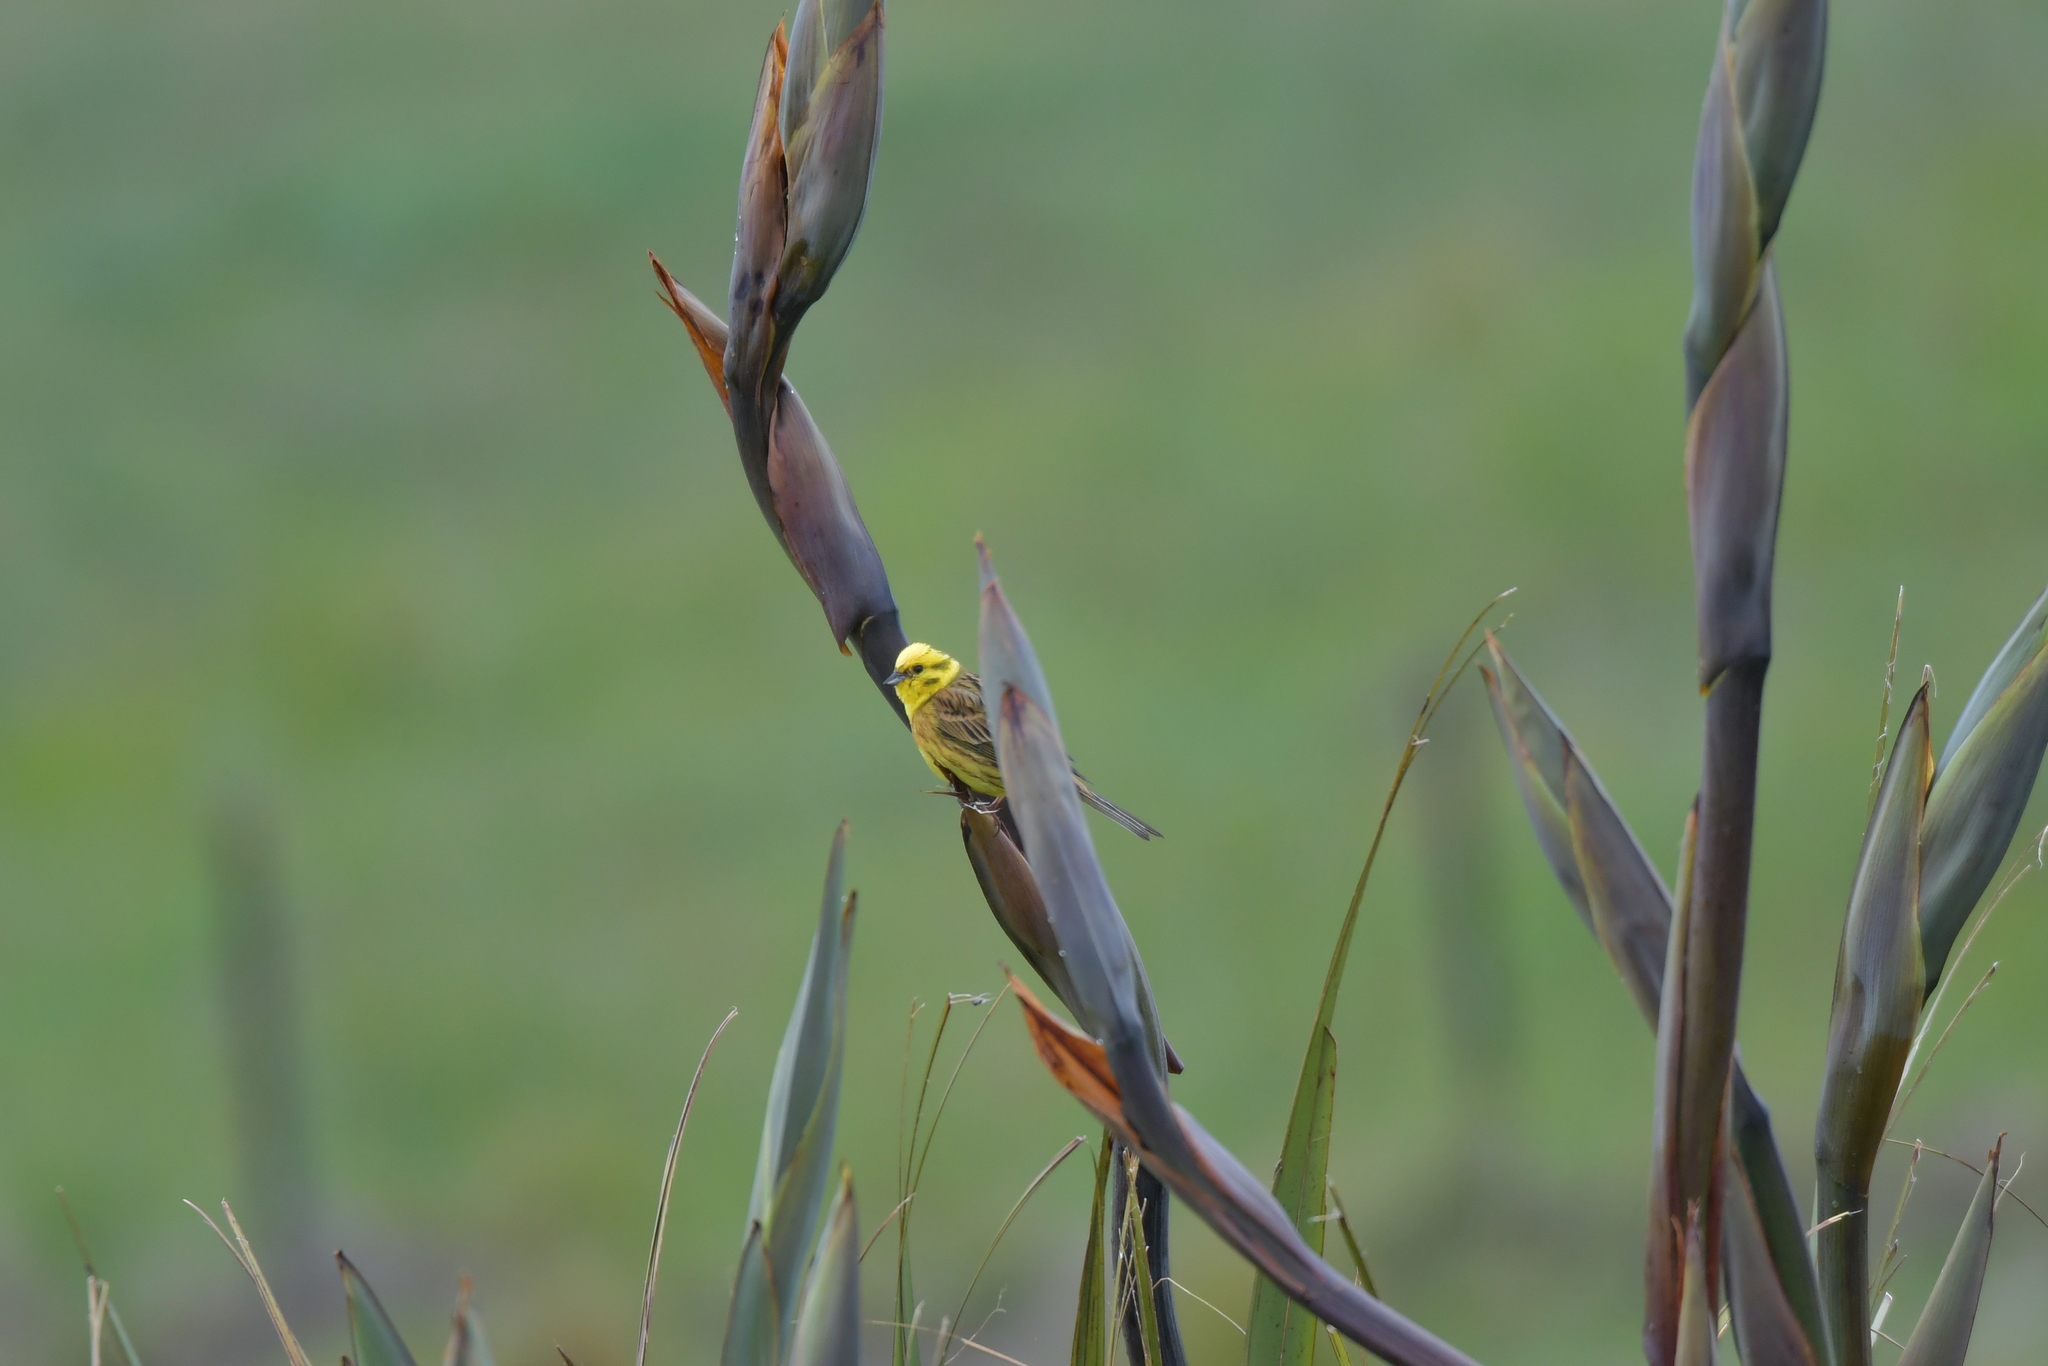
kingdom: Animalia
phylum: Chordata
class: Aves
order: Passeriformes
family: Emberizidae
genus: Emberiza
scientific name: Emberiza citrinella
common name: Yellowhammer
